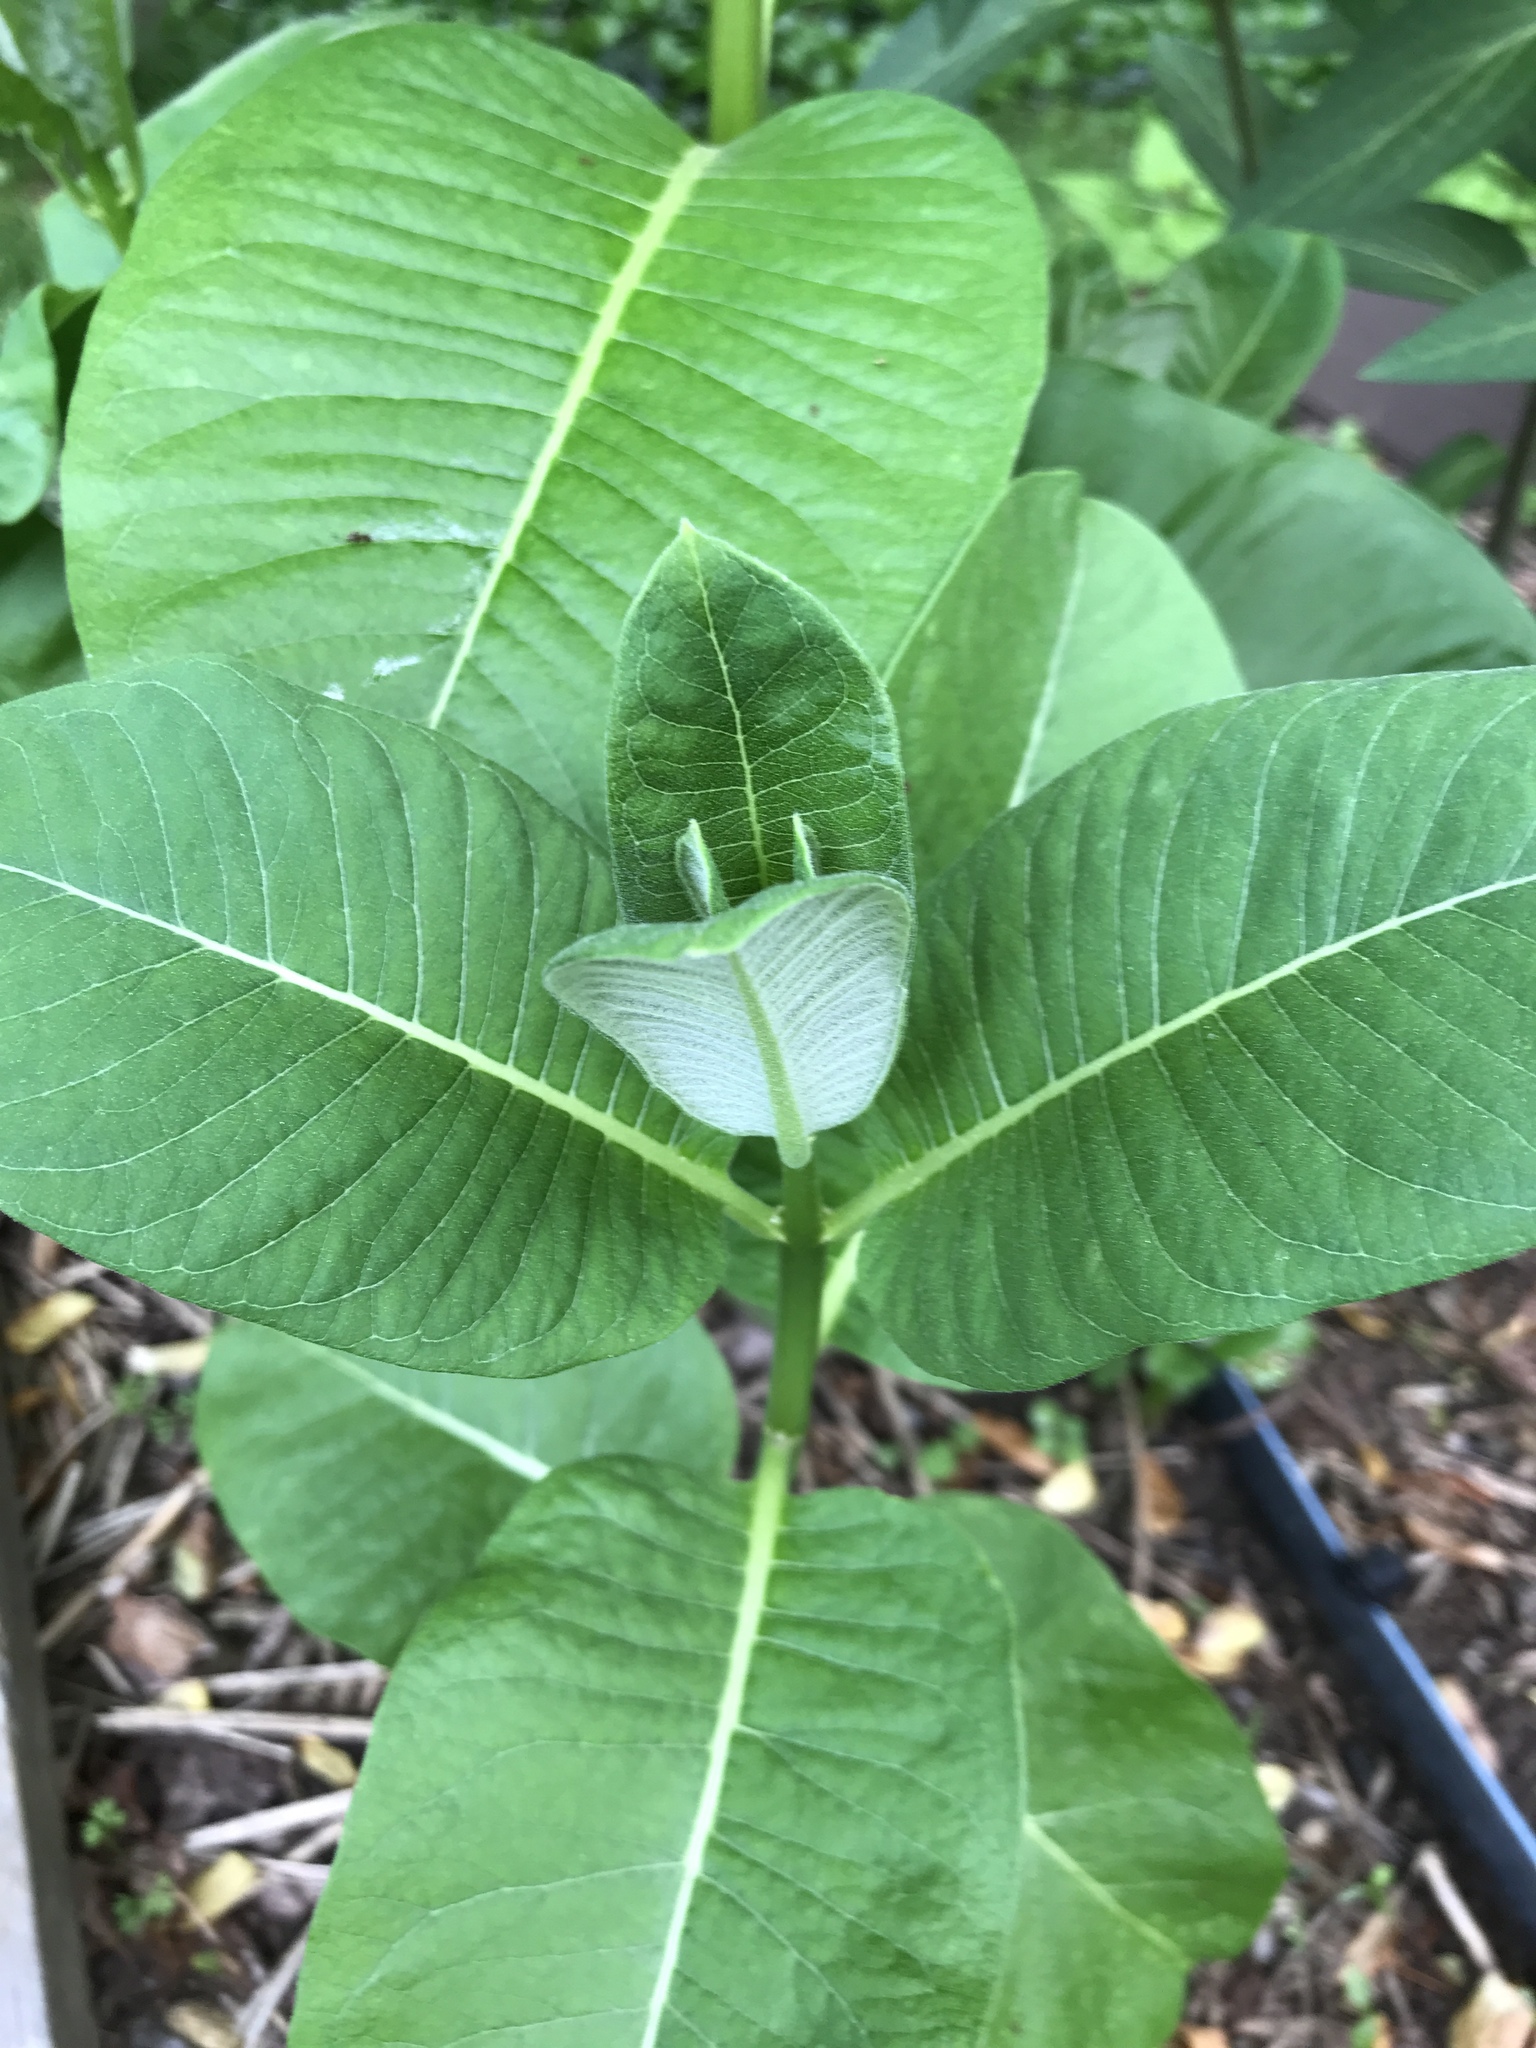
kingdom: Plantae
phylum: Tracheophyta
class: Magnoliopsida
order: Gentianales
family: Apocynaceae
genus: Asclepias
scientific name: Asclepias syriaca
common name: Common milkweed
